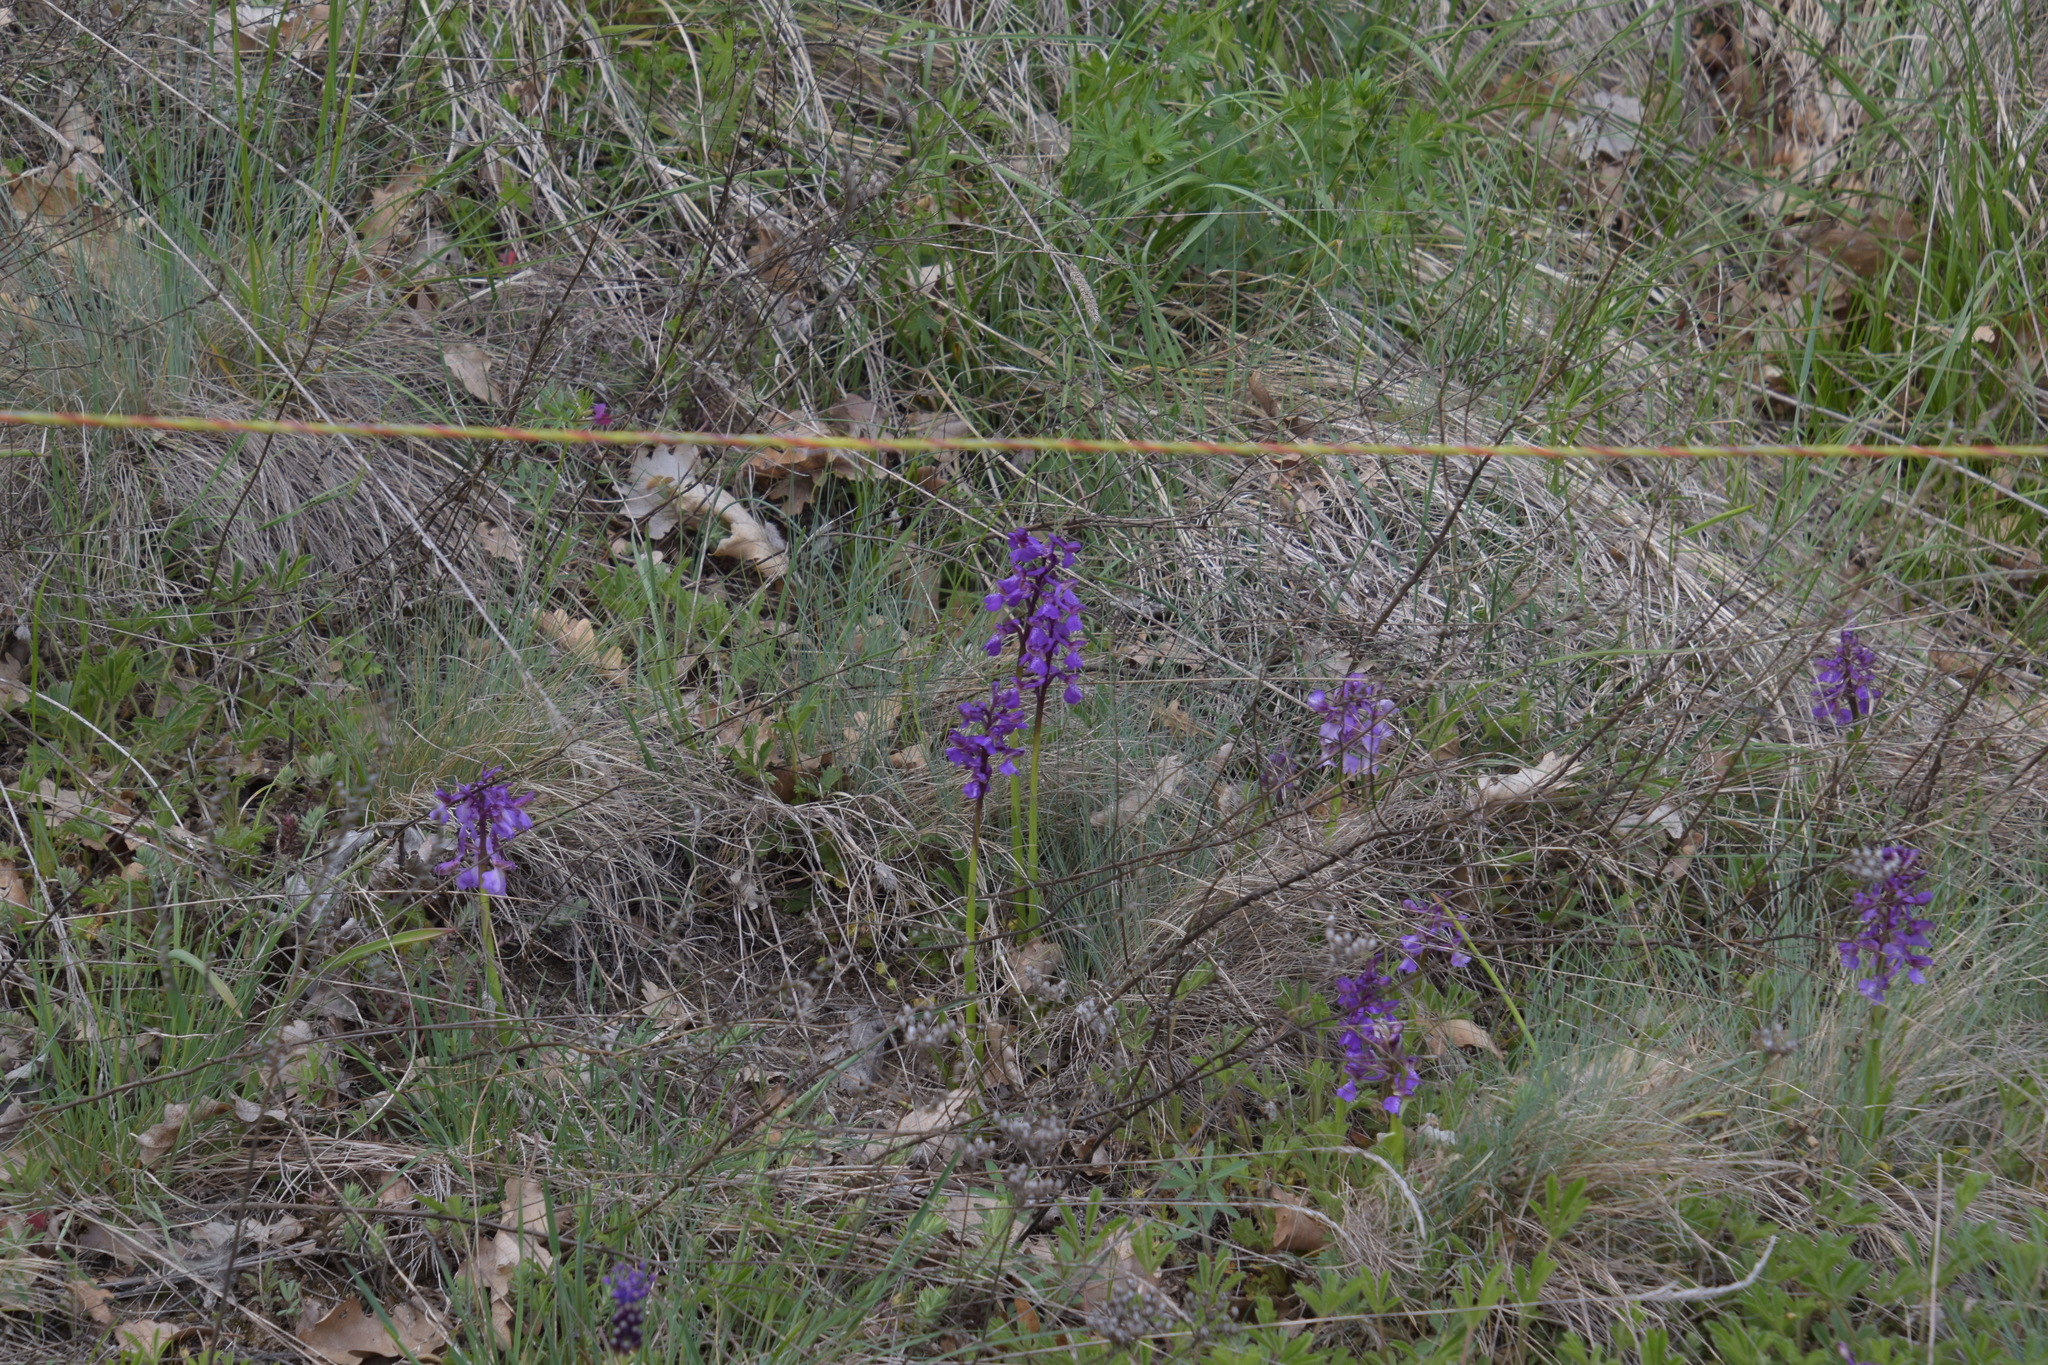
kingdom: Plantae
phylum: Tracheophyta
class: Liliopsida
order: Asparagales
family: Orchidaceae
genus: Anacamptis
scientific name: Anacamptis morio
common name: Green-winged orchid
